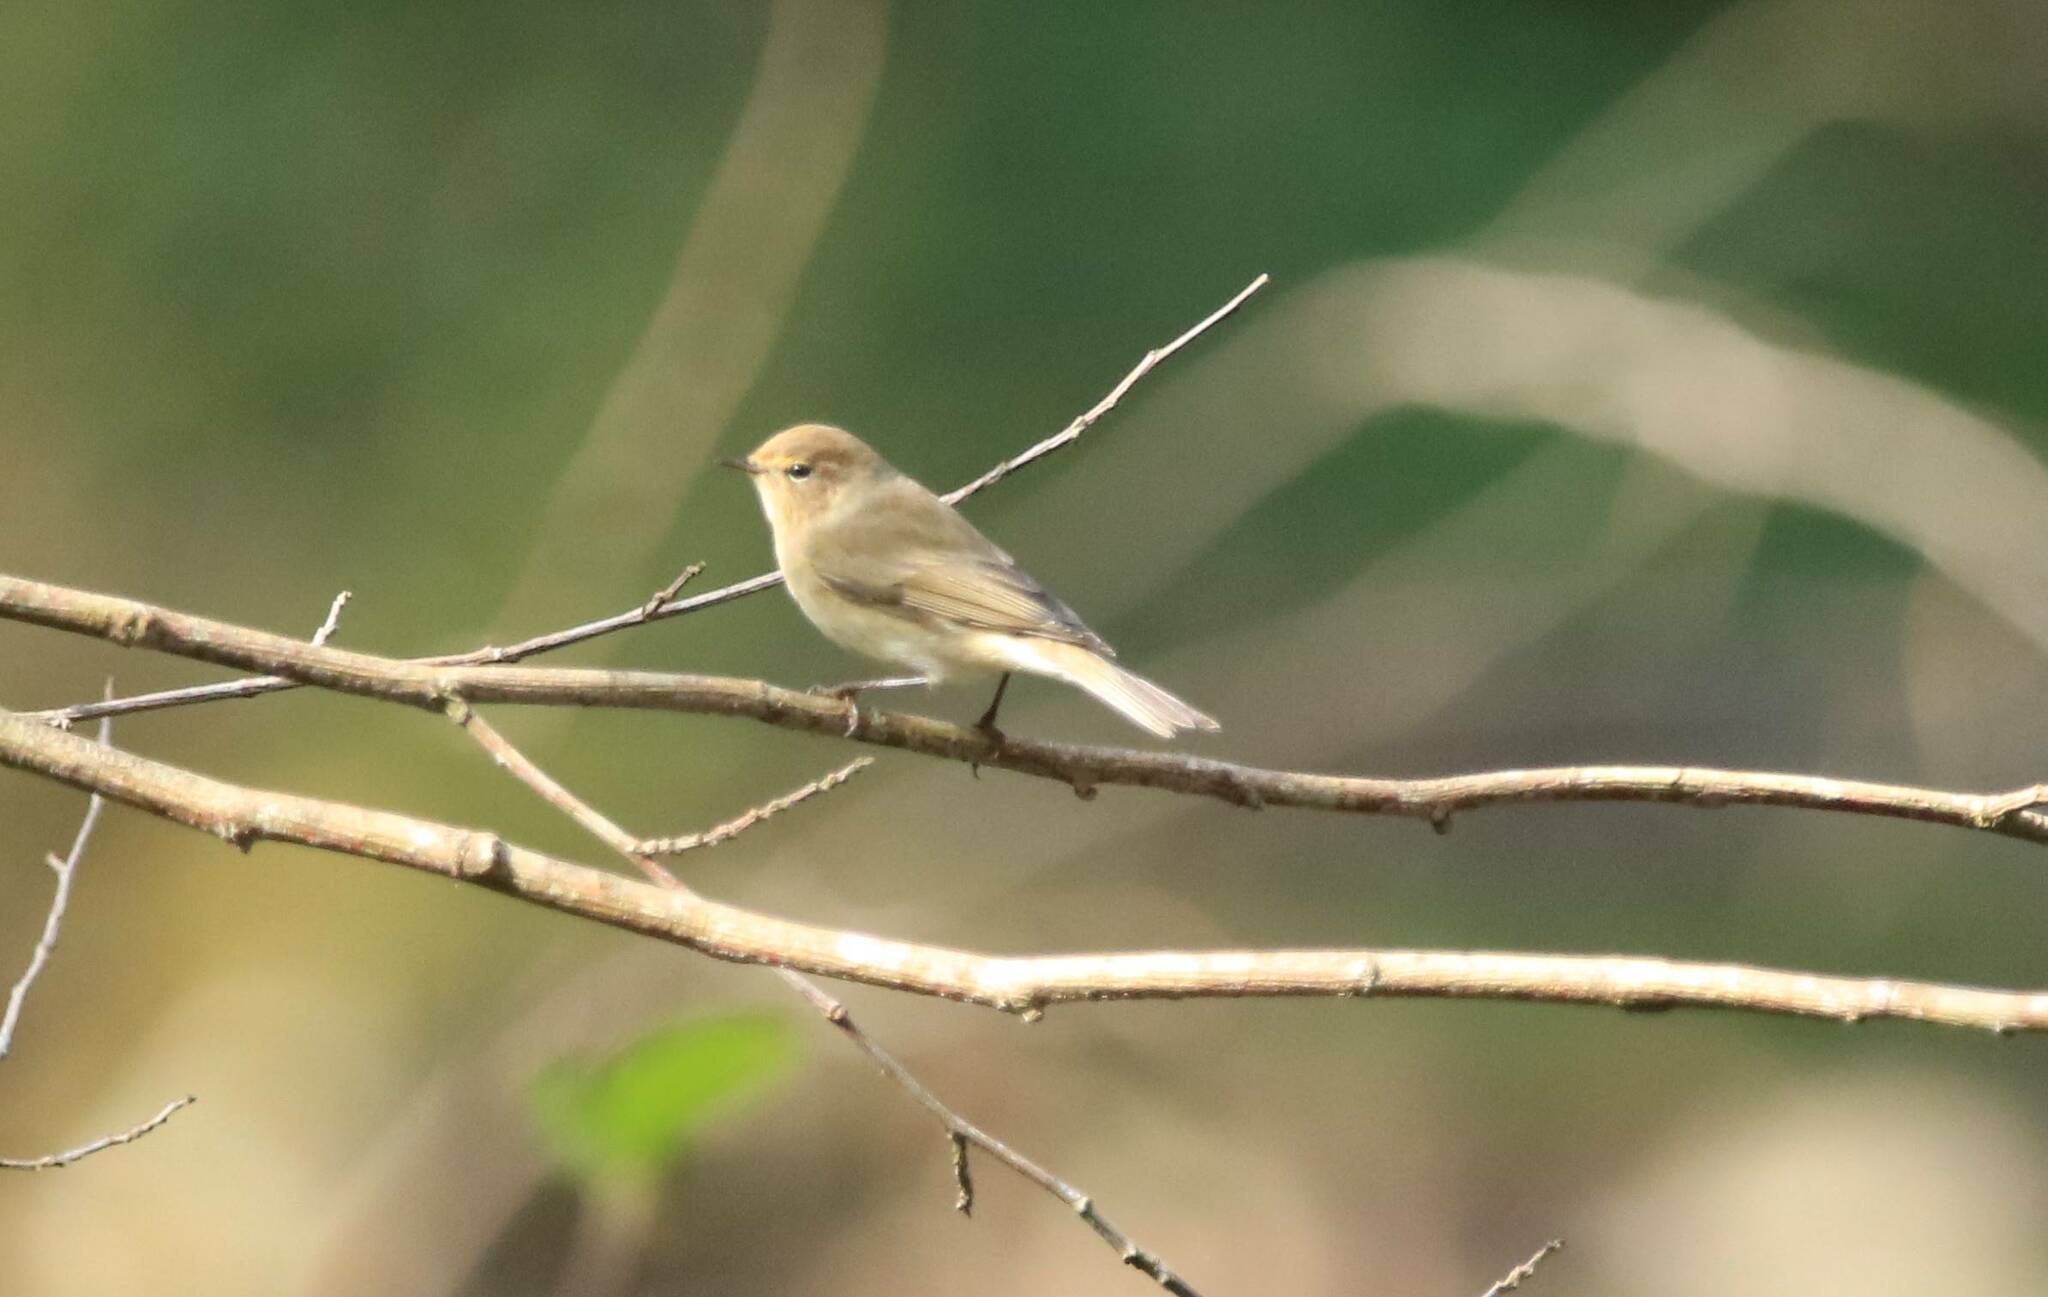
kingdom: Animalia
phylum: Chordata
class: Aves
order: Passeriformes
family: Phylloscopidae
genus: Phylloscopus
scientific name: Phylloscopus collybita
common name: Common chiffchaff
